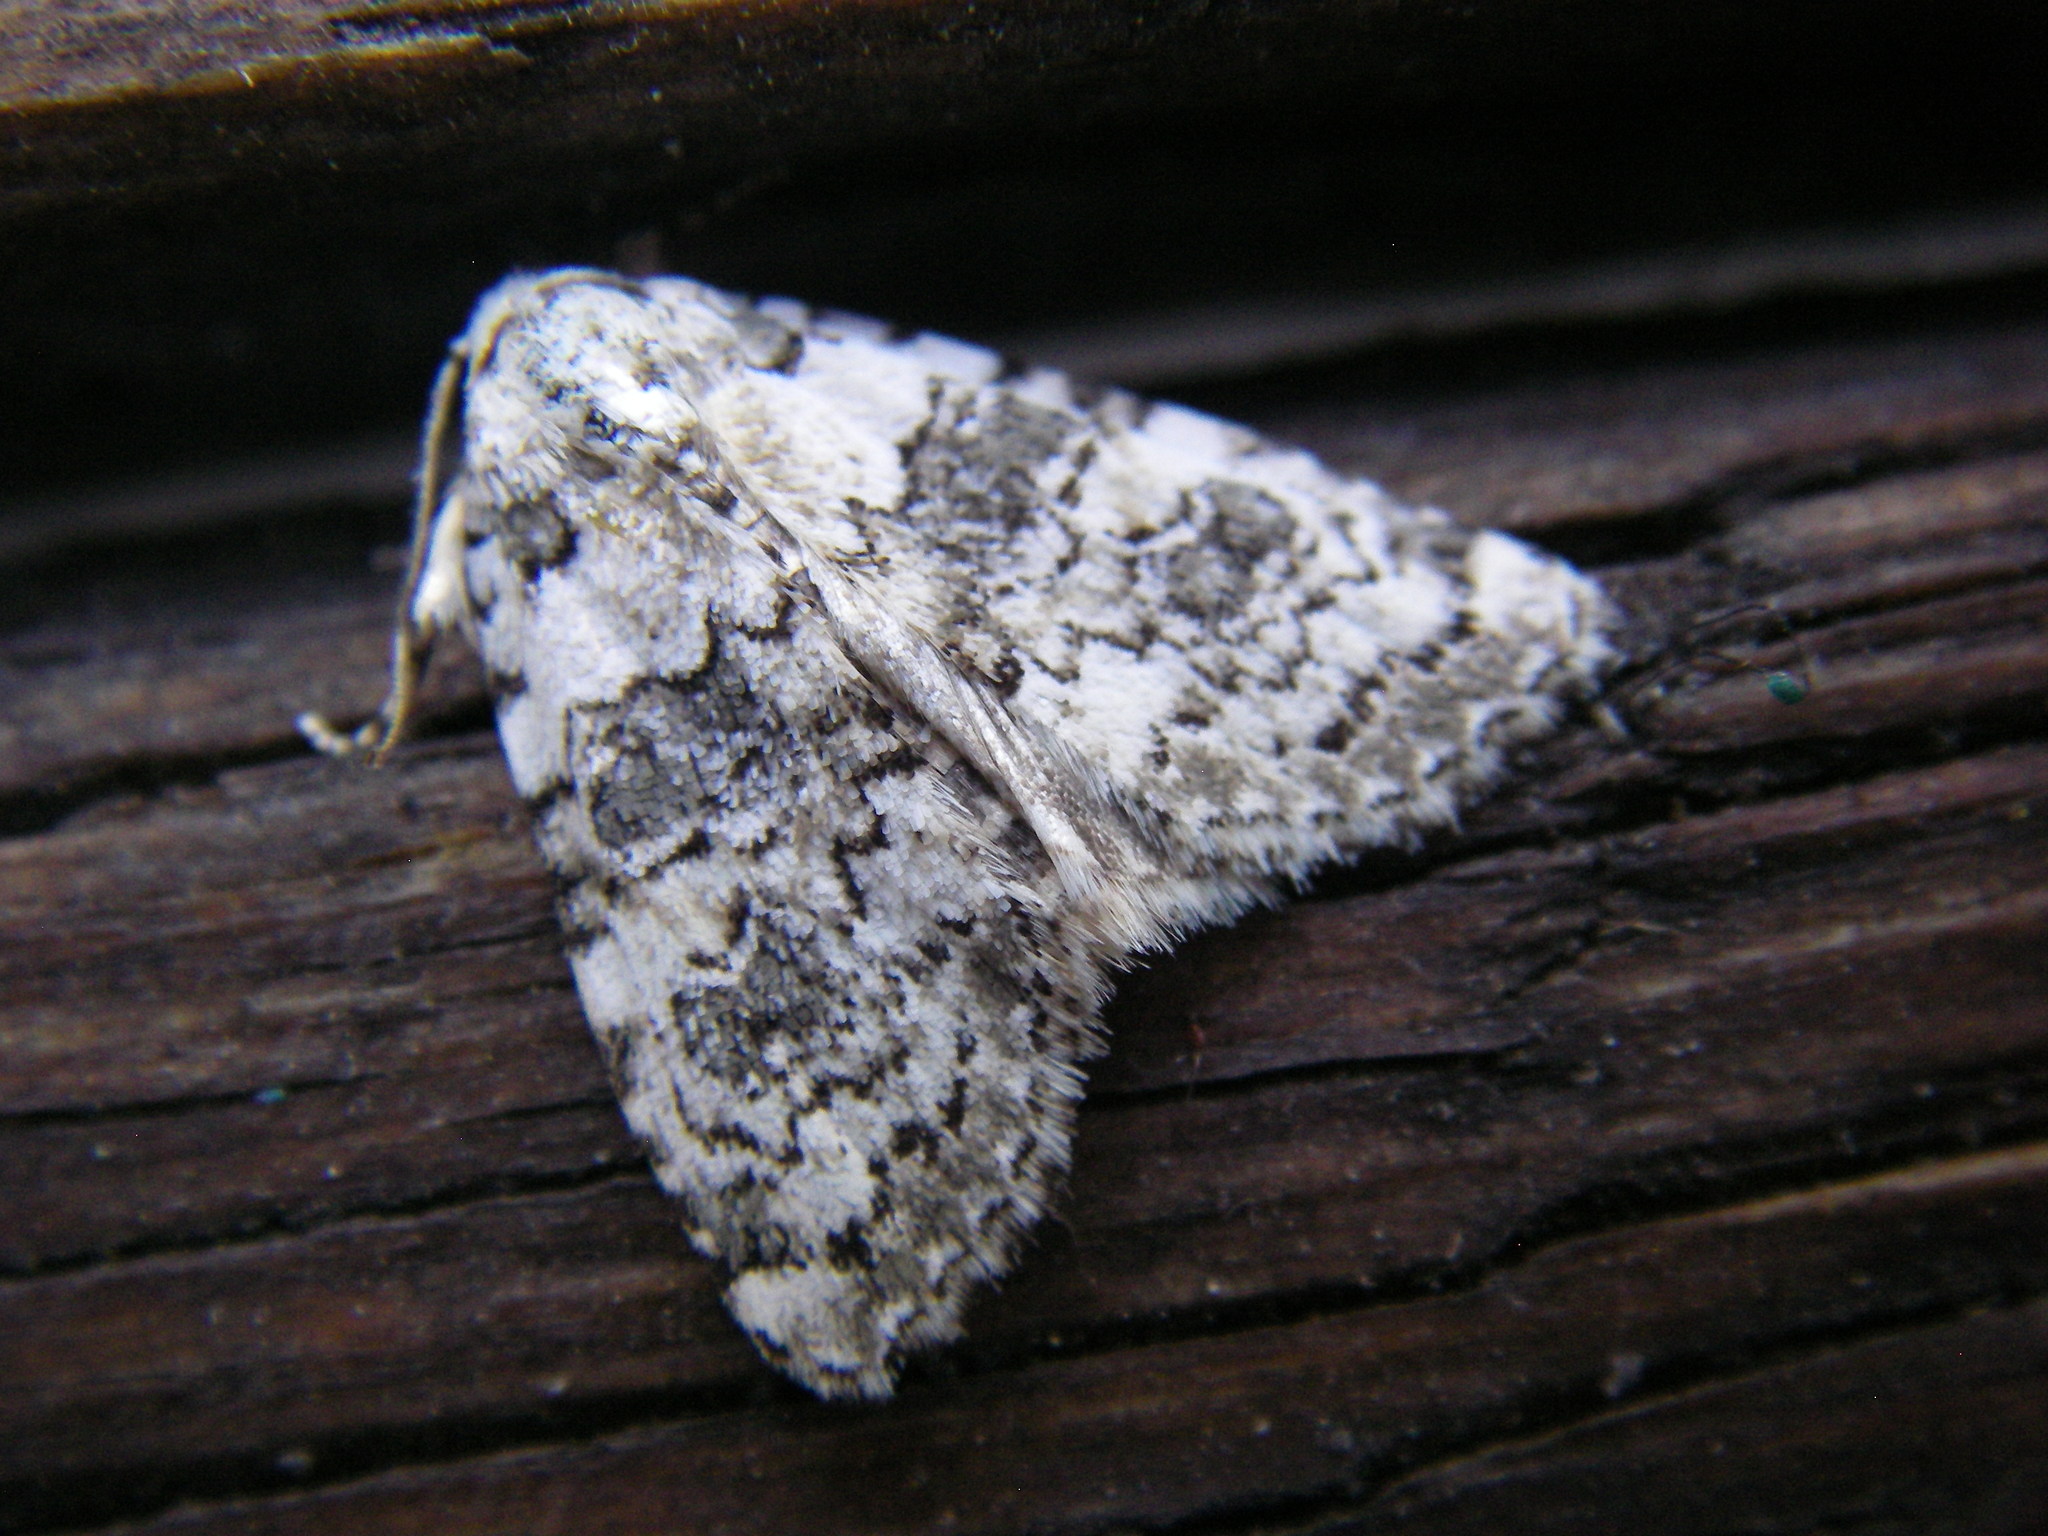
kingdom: Animalia
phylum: Arthropoda
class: Insecta
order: Lepidoptera
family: Noctuidae
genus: Bryophila
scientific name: Bryophila domestica
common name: Marbled beauty
